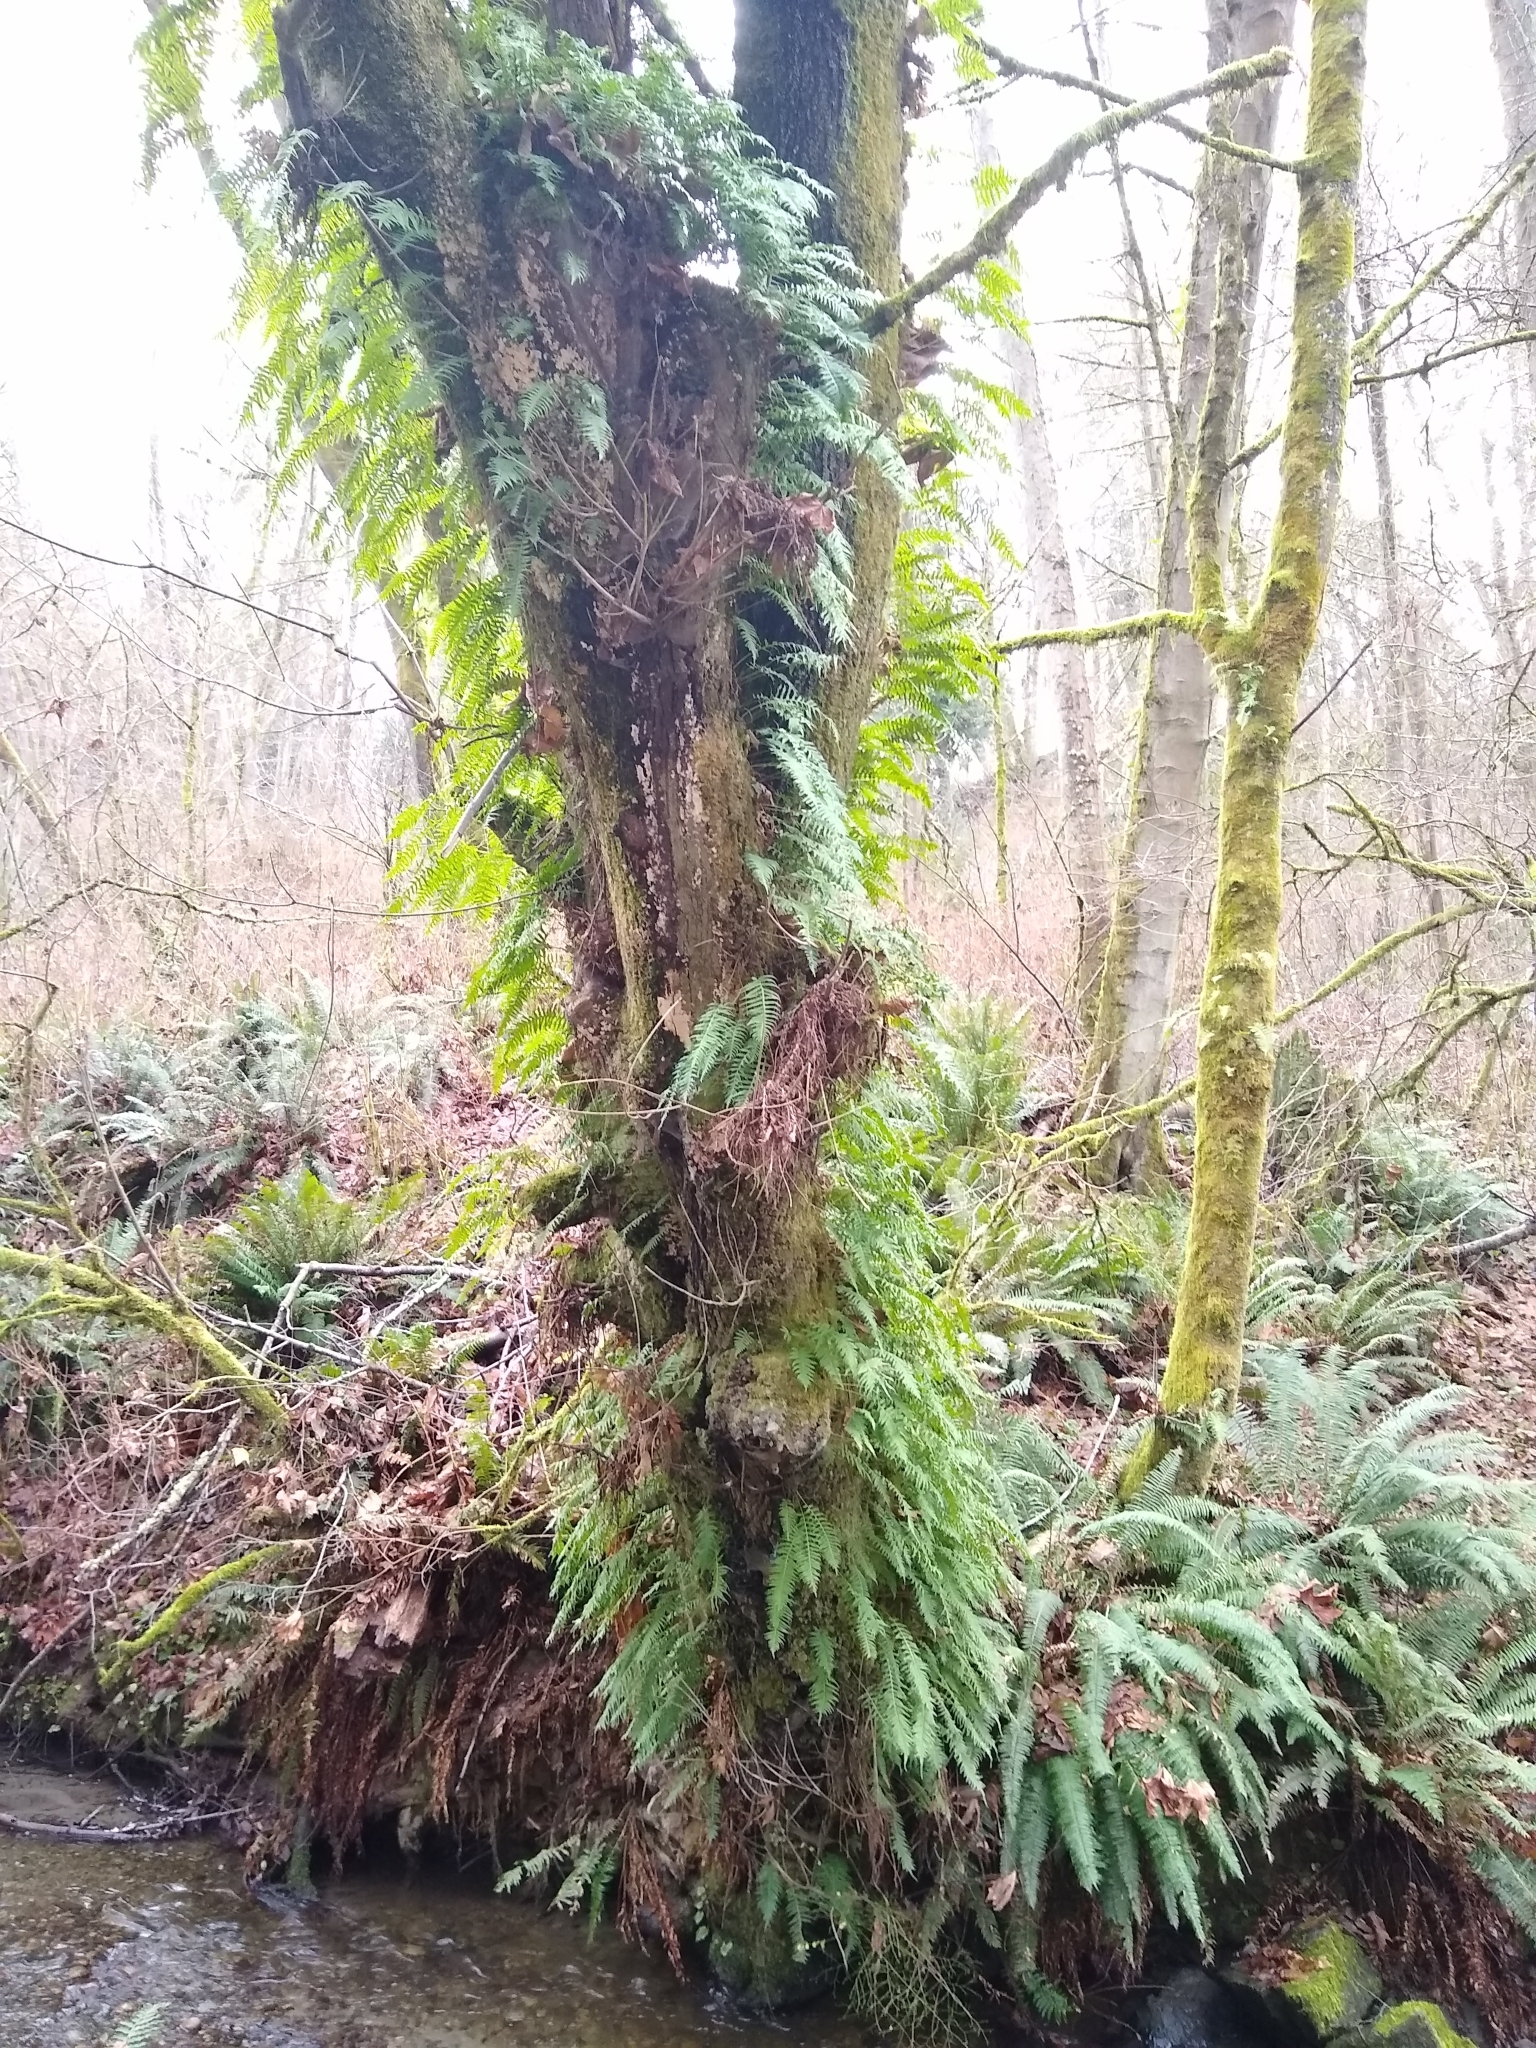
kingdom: Plantae
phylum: Tracheophyta
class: Polypodiopsida
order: Polypodiales
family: Polypodiaceae
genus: Polypodium
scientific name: Polypodium glycyrrhiza
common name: Licorice fern
